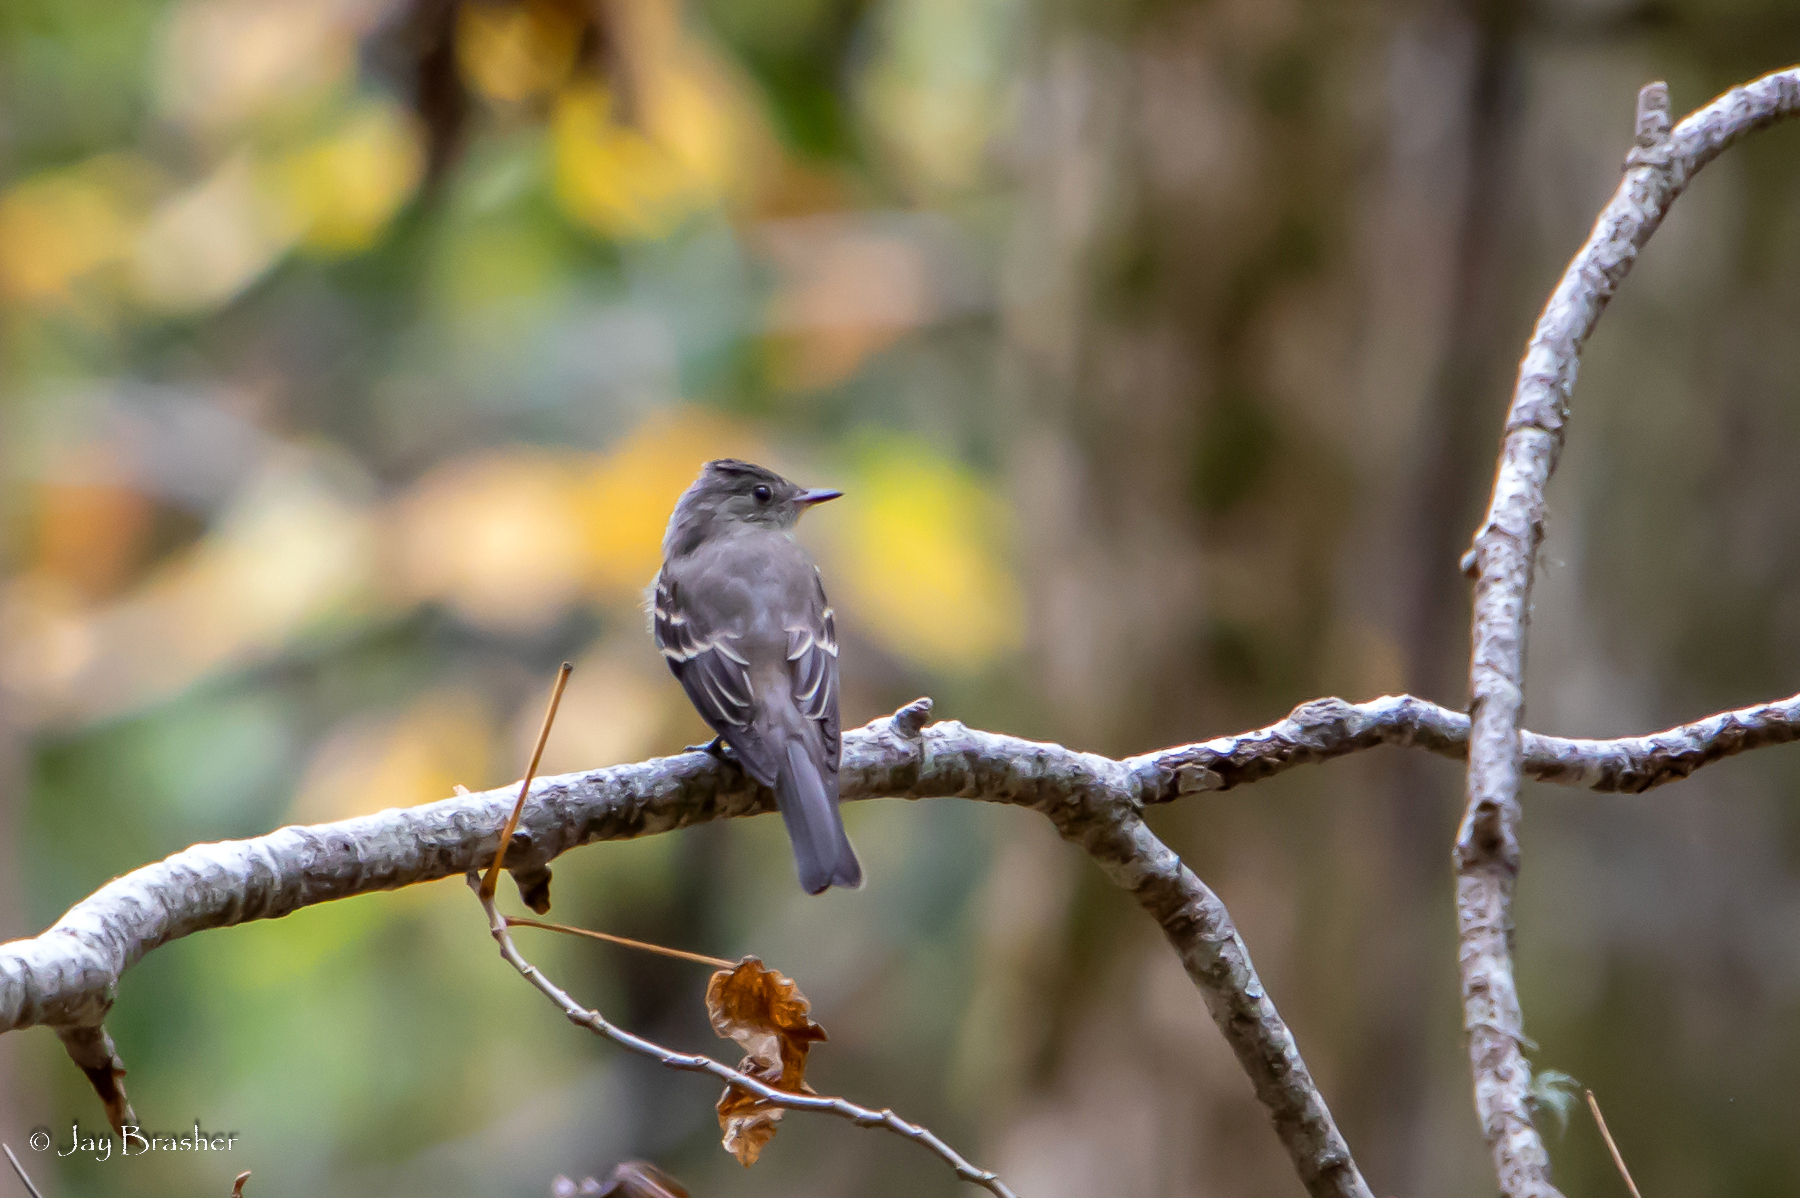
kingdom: Animalia
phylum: Chordata
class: Aves
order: Passeriformes
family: Tyrannidae
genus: Contopus
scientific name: Contopus virens
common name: Eastern wood-pewee
